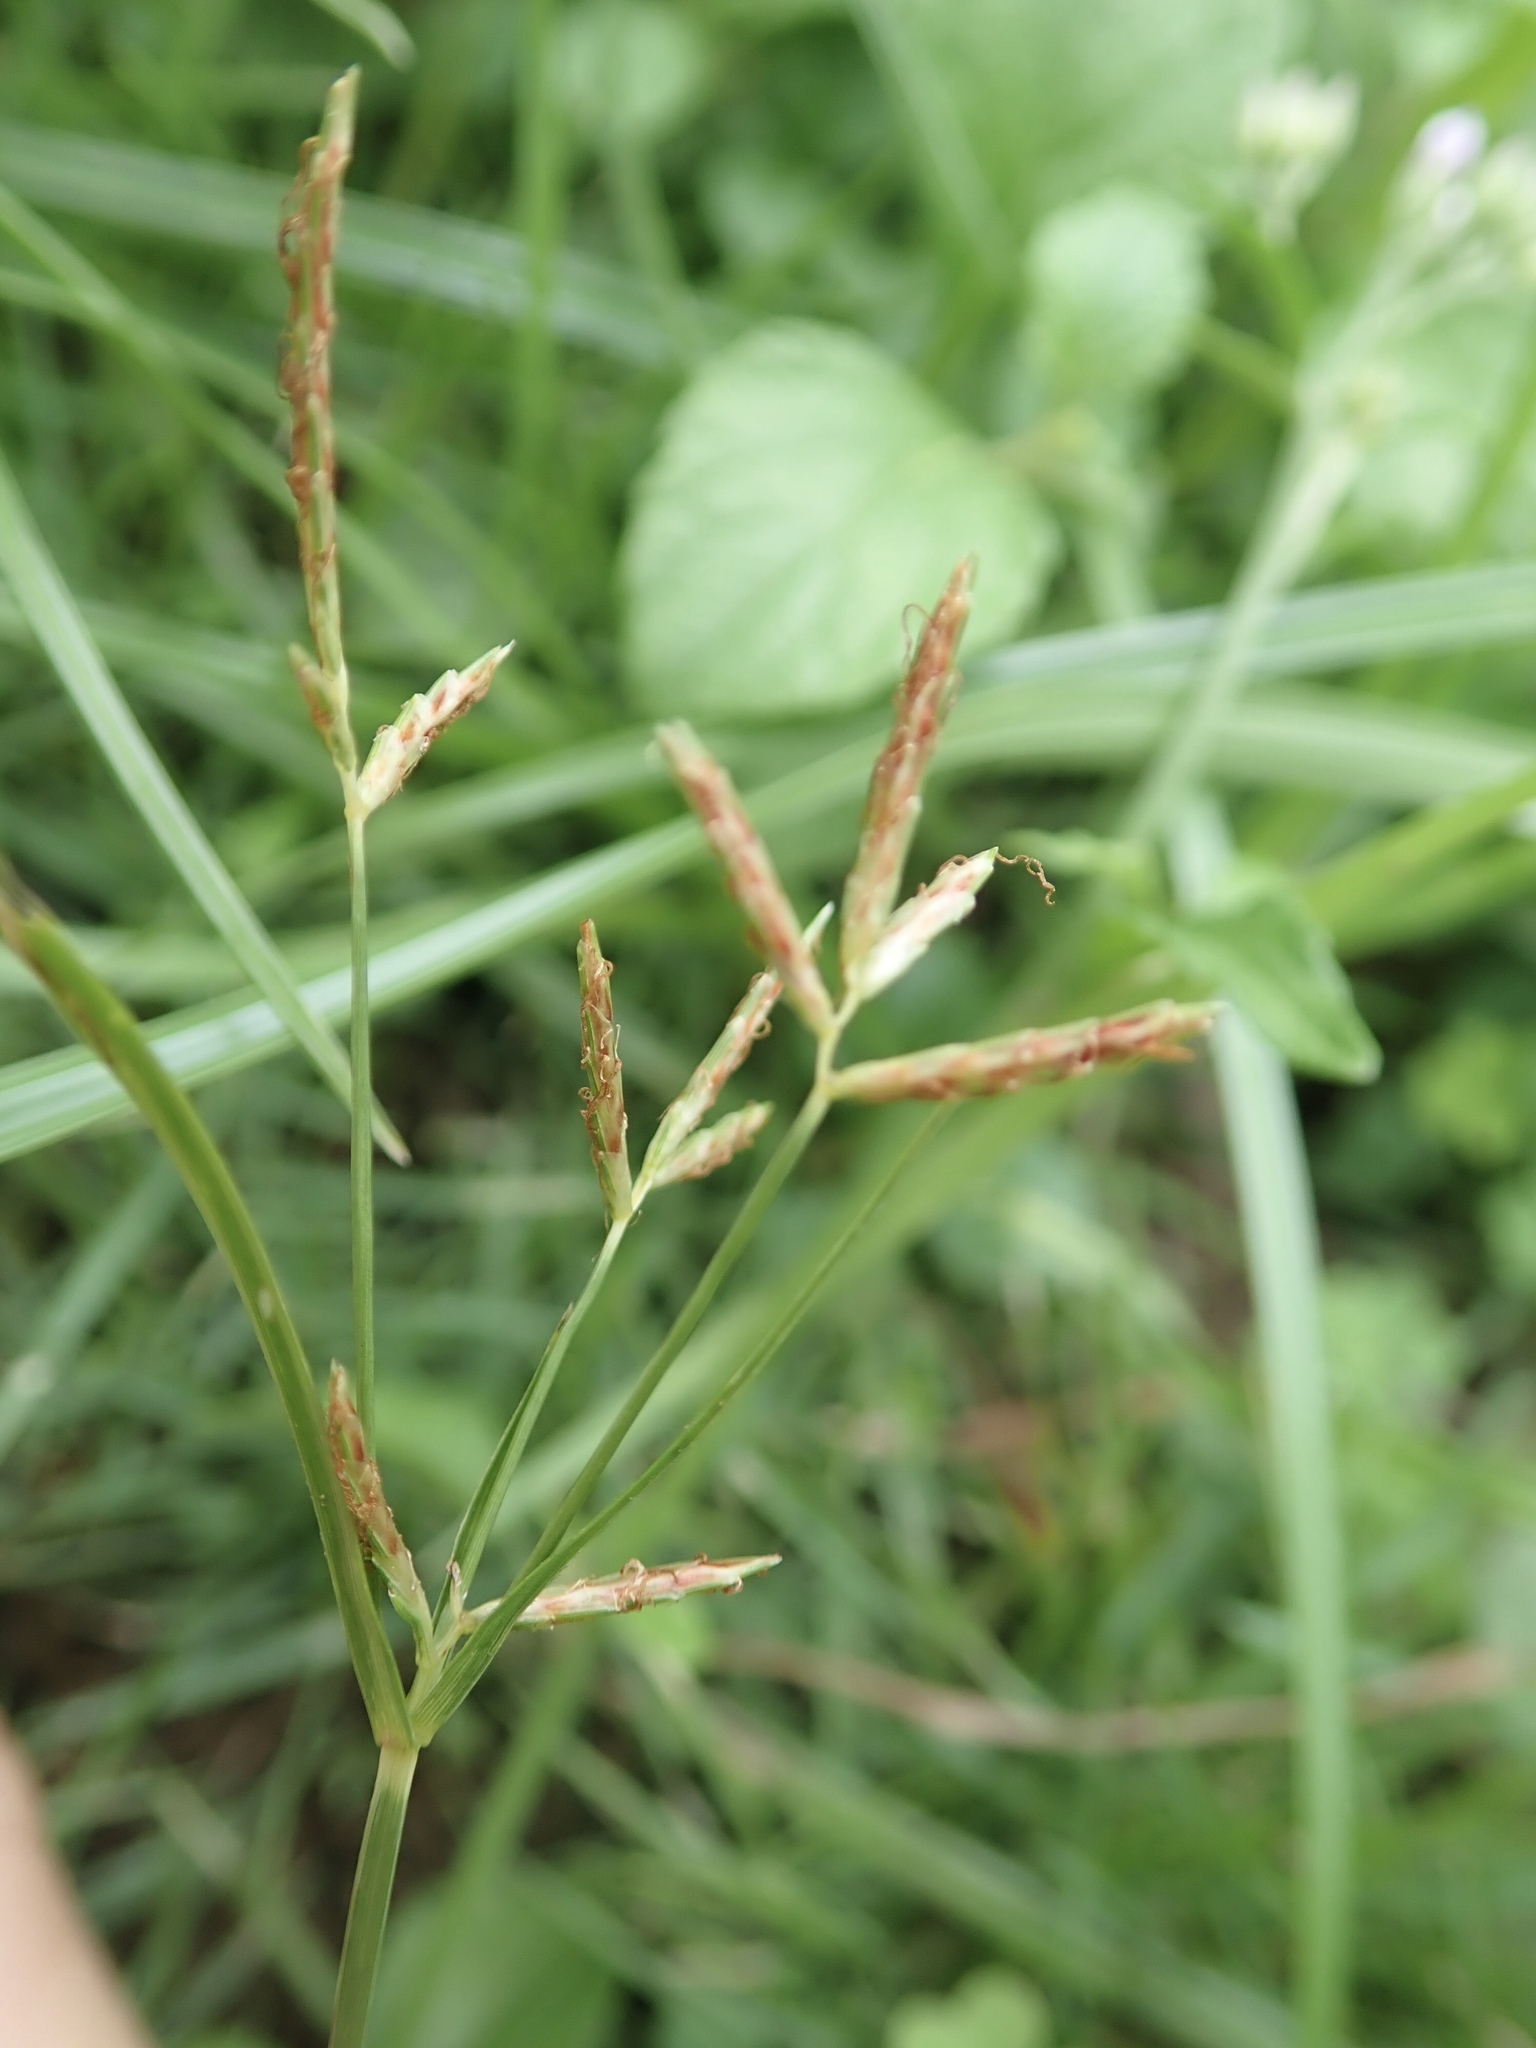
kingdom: Plantae
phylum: Tracheophyta
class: Liliopsida
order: Poales
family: Cyperaceae
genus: Cyperus
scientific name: Cyperus rotundus
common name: Nutgrass
